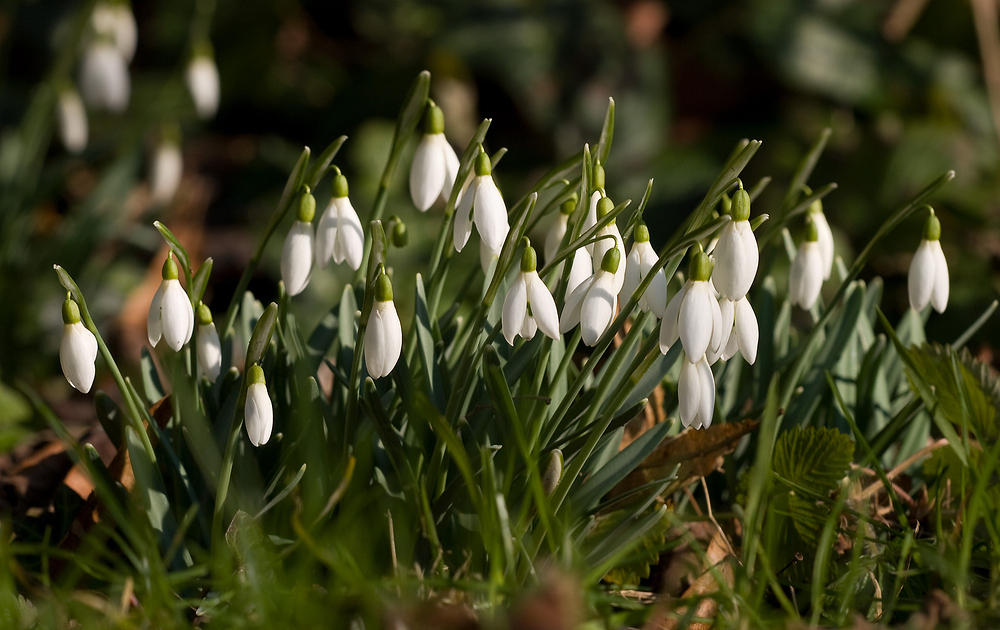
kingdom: Plantae
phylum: Tracheophyta
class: Liliopsida
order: Asparagales
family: Amaryllidaceae
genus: Galanthus
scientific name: Galanthus nivalis
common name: Snowdrop
